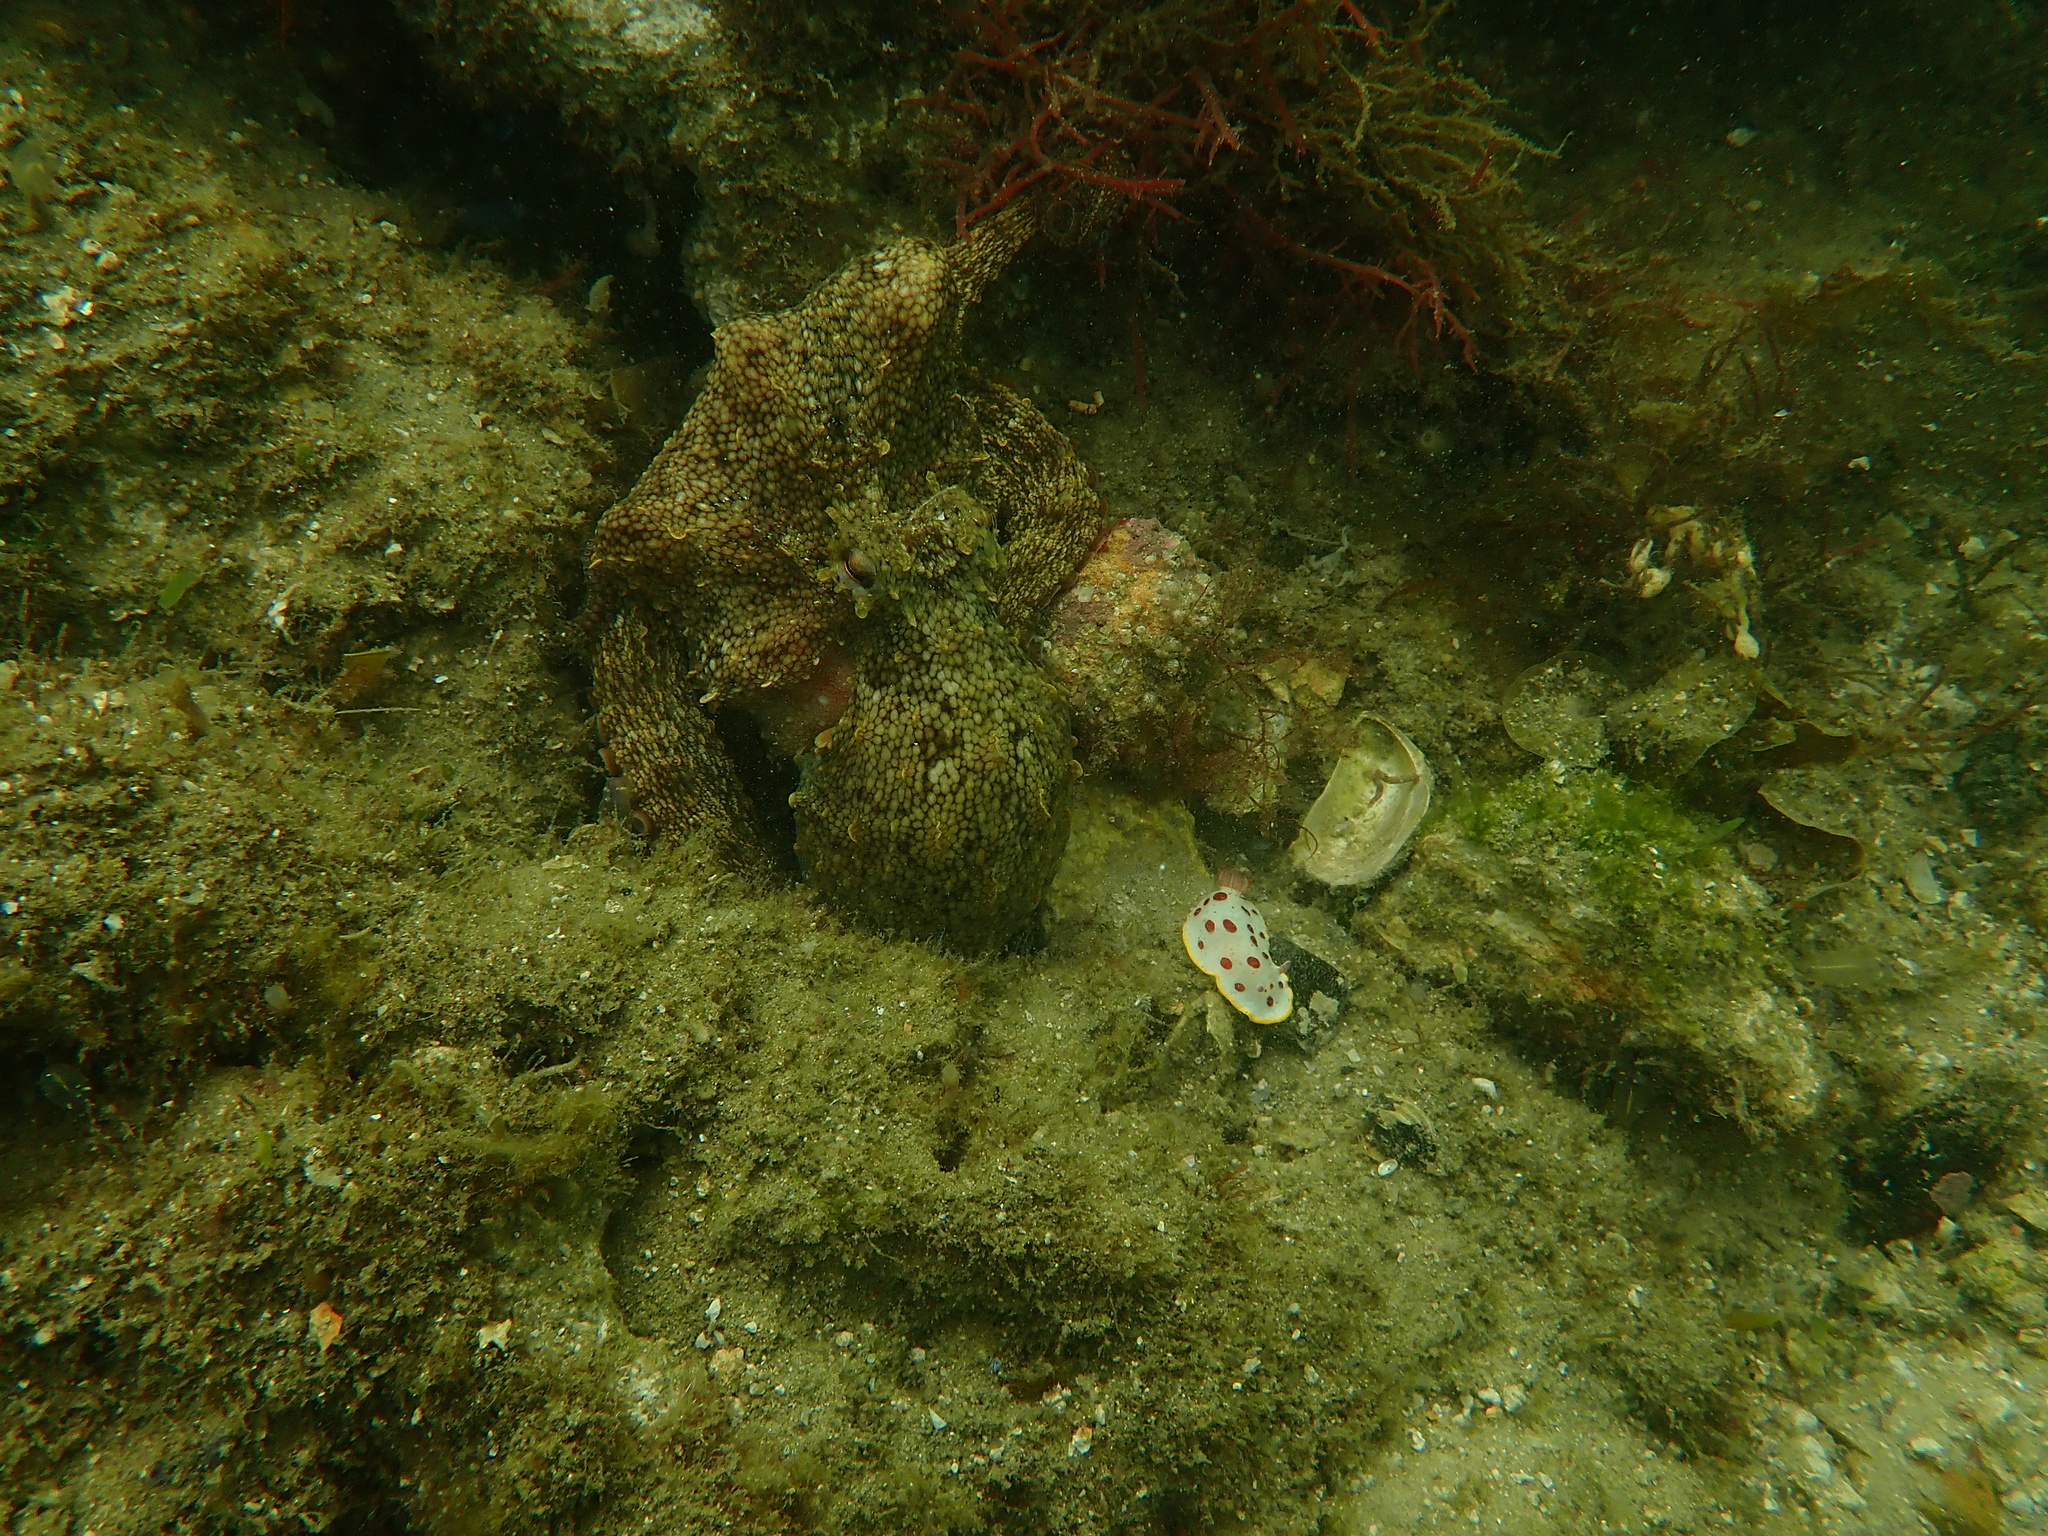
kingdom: Animalia
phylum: Mollusca
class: Gastropoda
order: Nudibranchia
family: Chromodorididae
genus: Goniobranchus
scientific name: Goniobranchus splendidus
